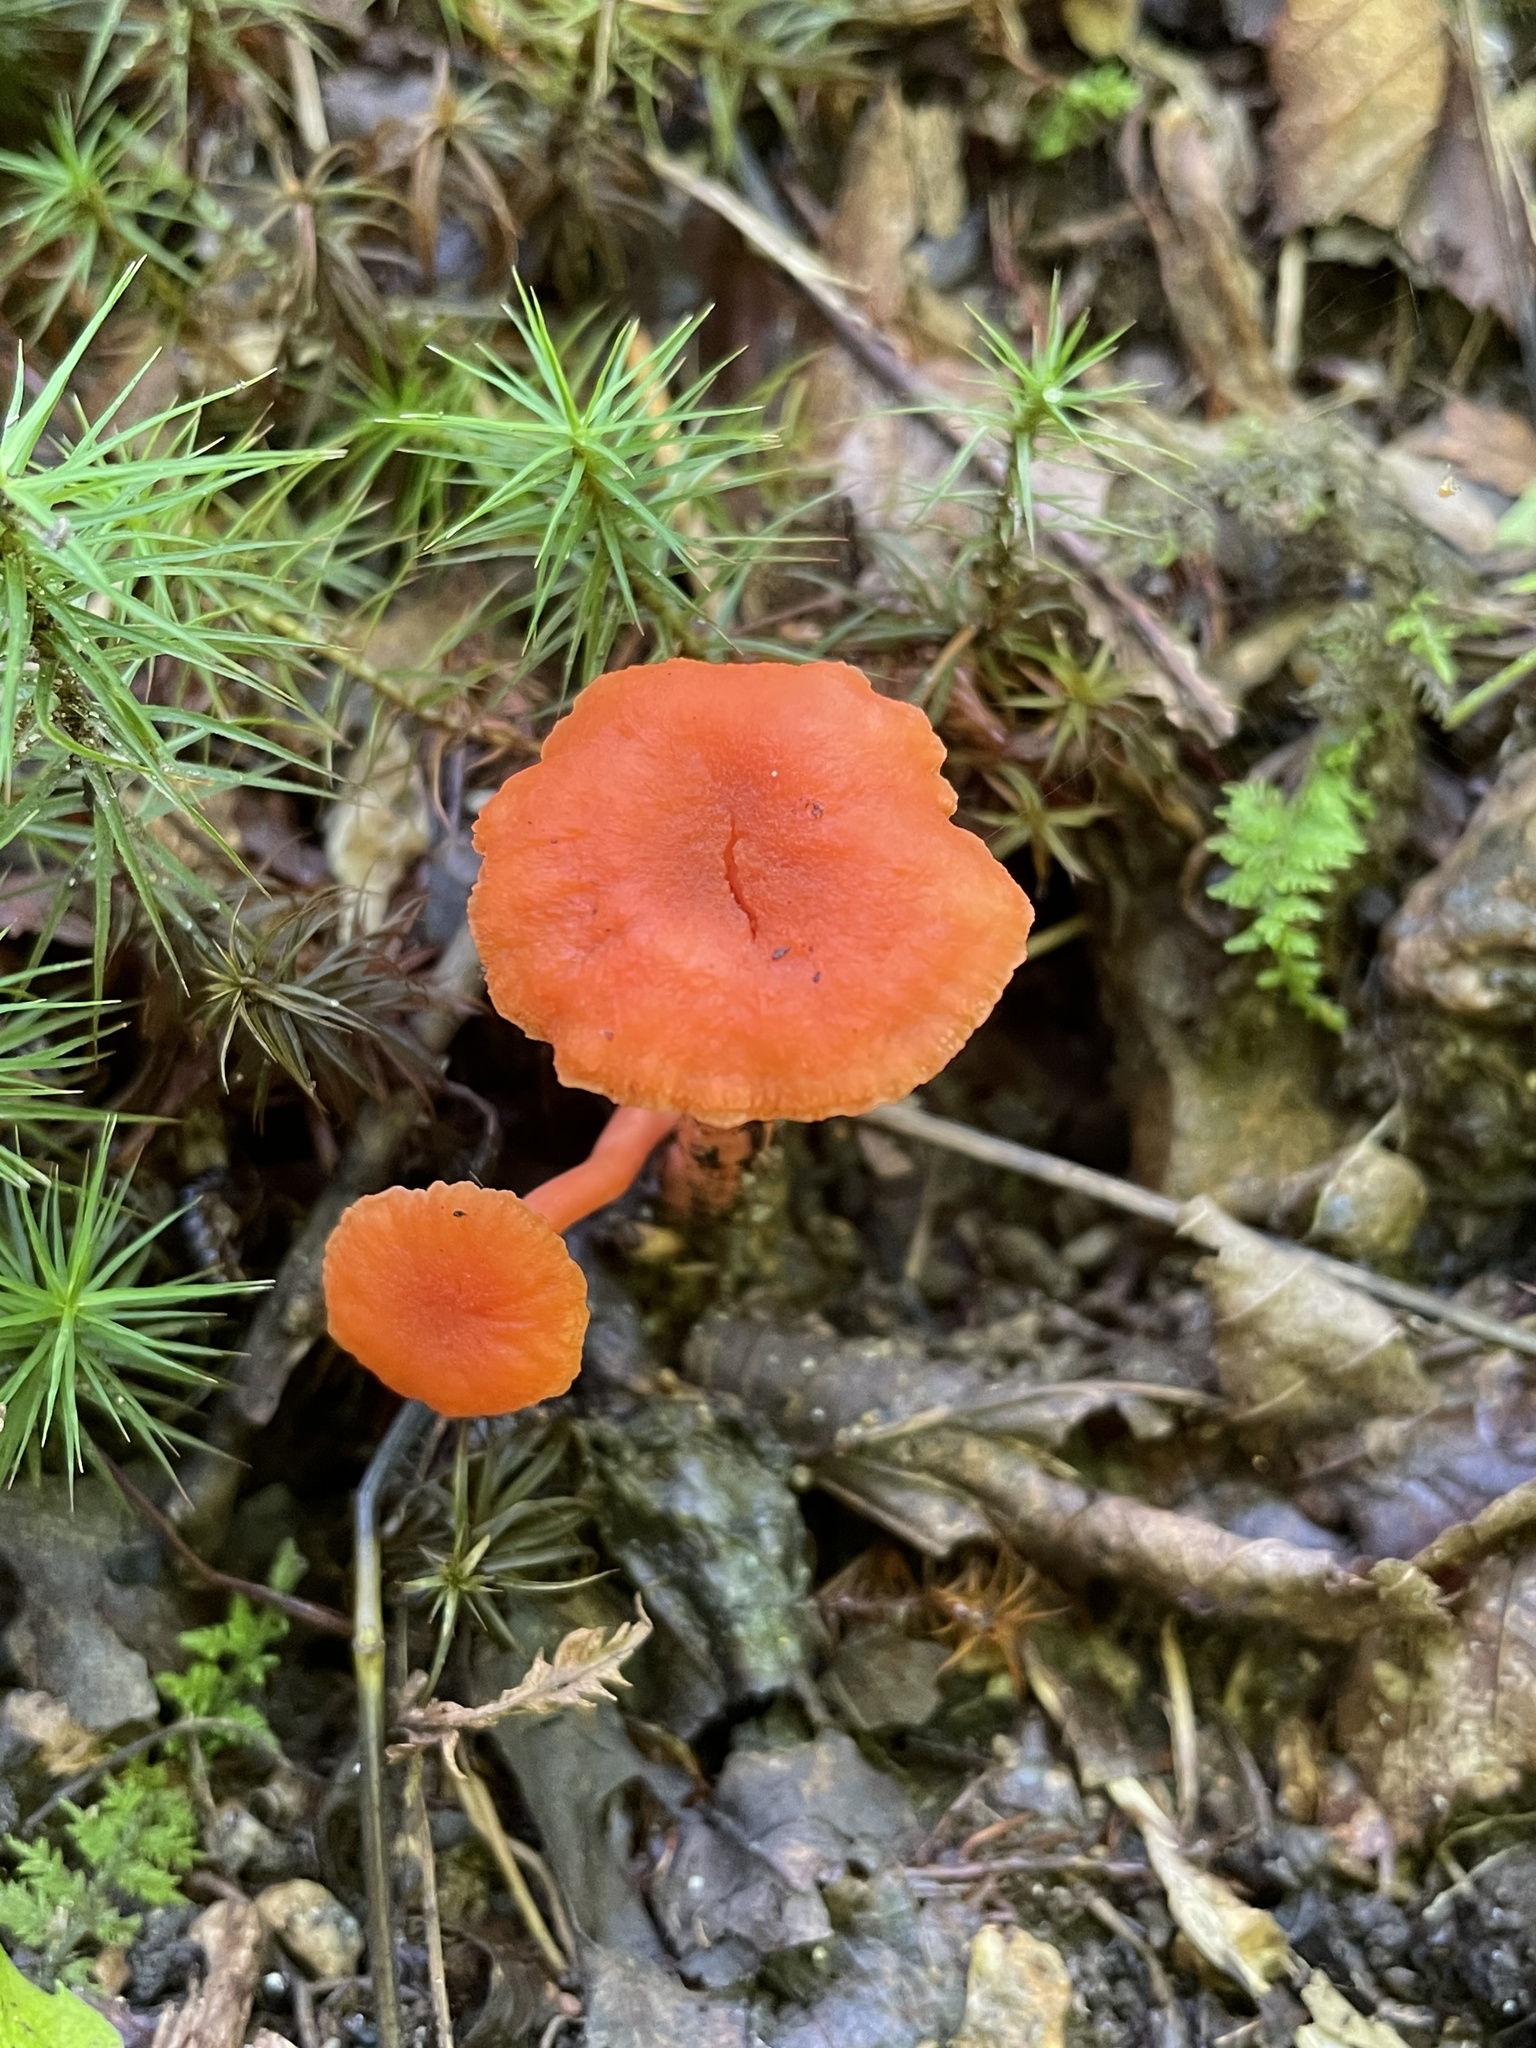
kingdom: Fungi
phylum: Basidiomycota
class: Agaricomycetes
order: Cantharellales
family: Hydnaceae
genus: Cantharellus
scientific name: Cantharellus cinnabarinus
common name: Cinnabar chanterelle
